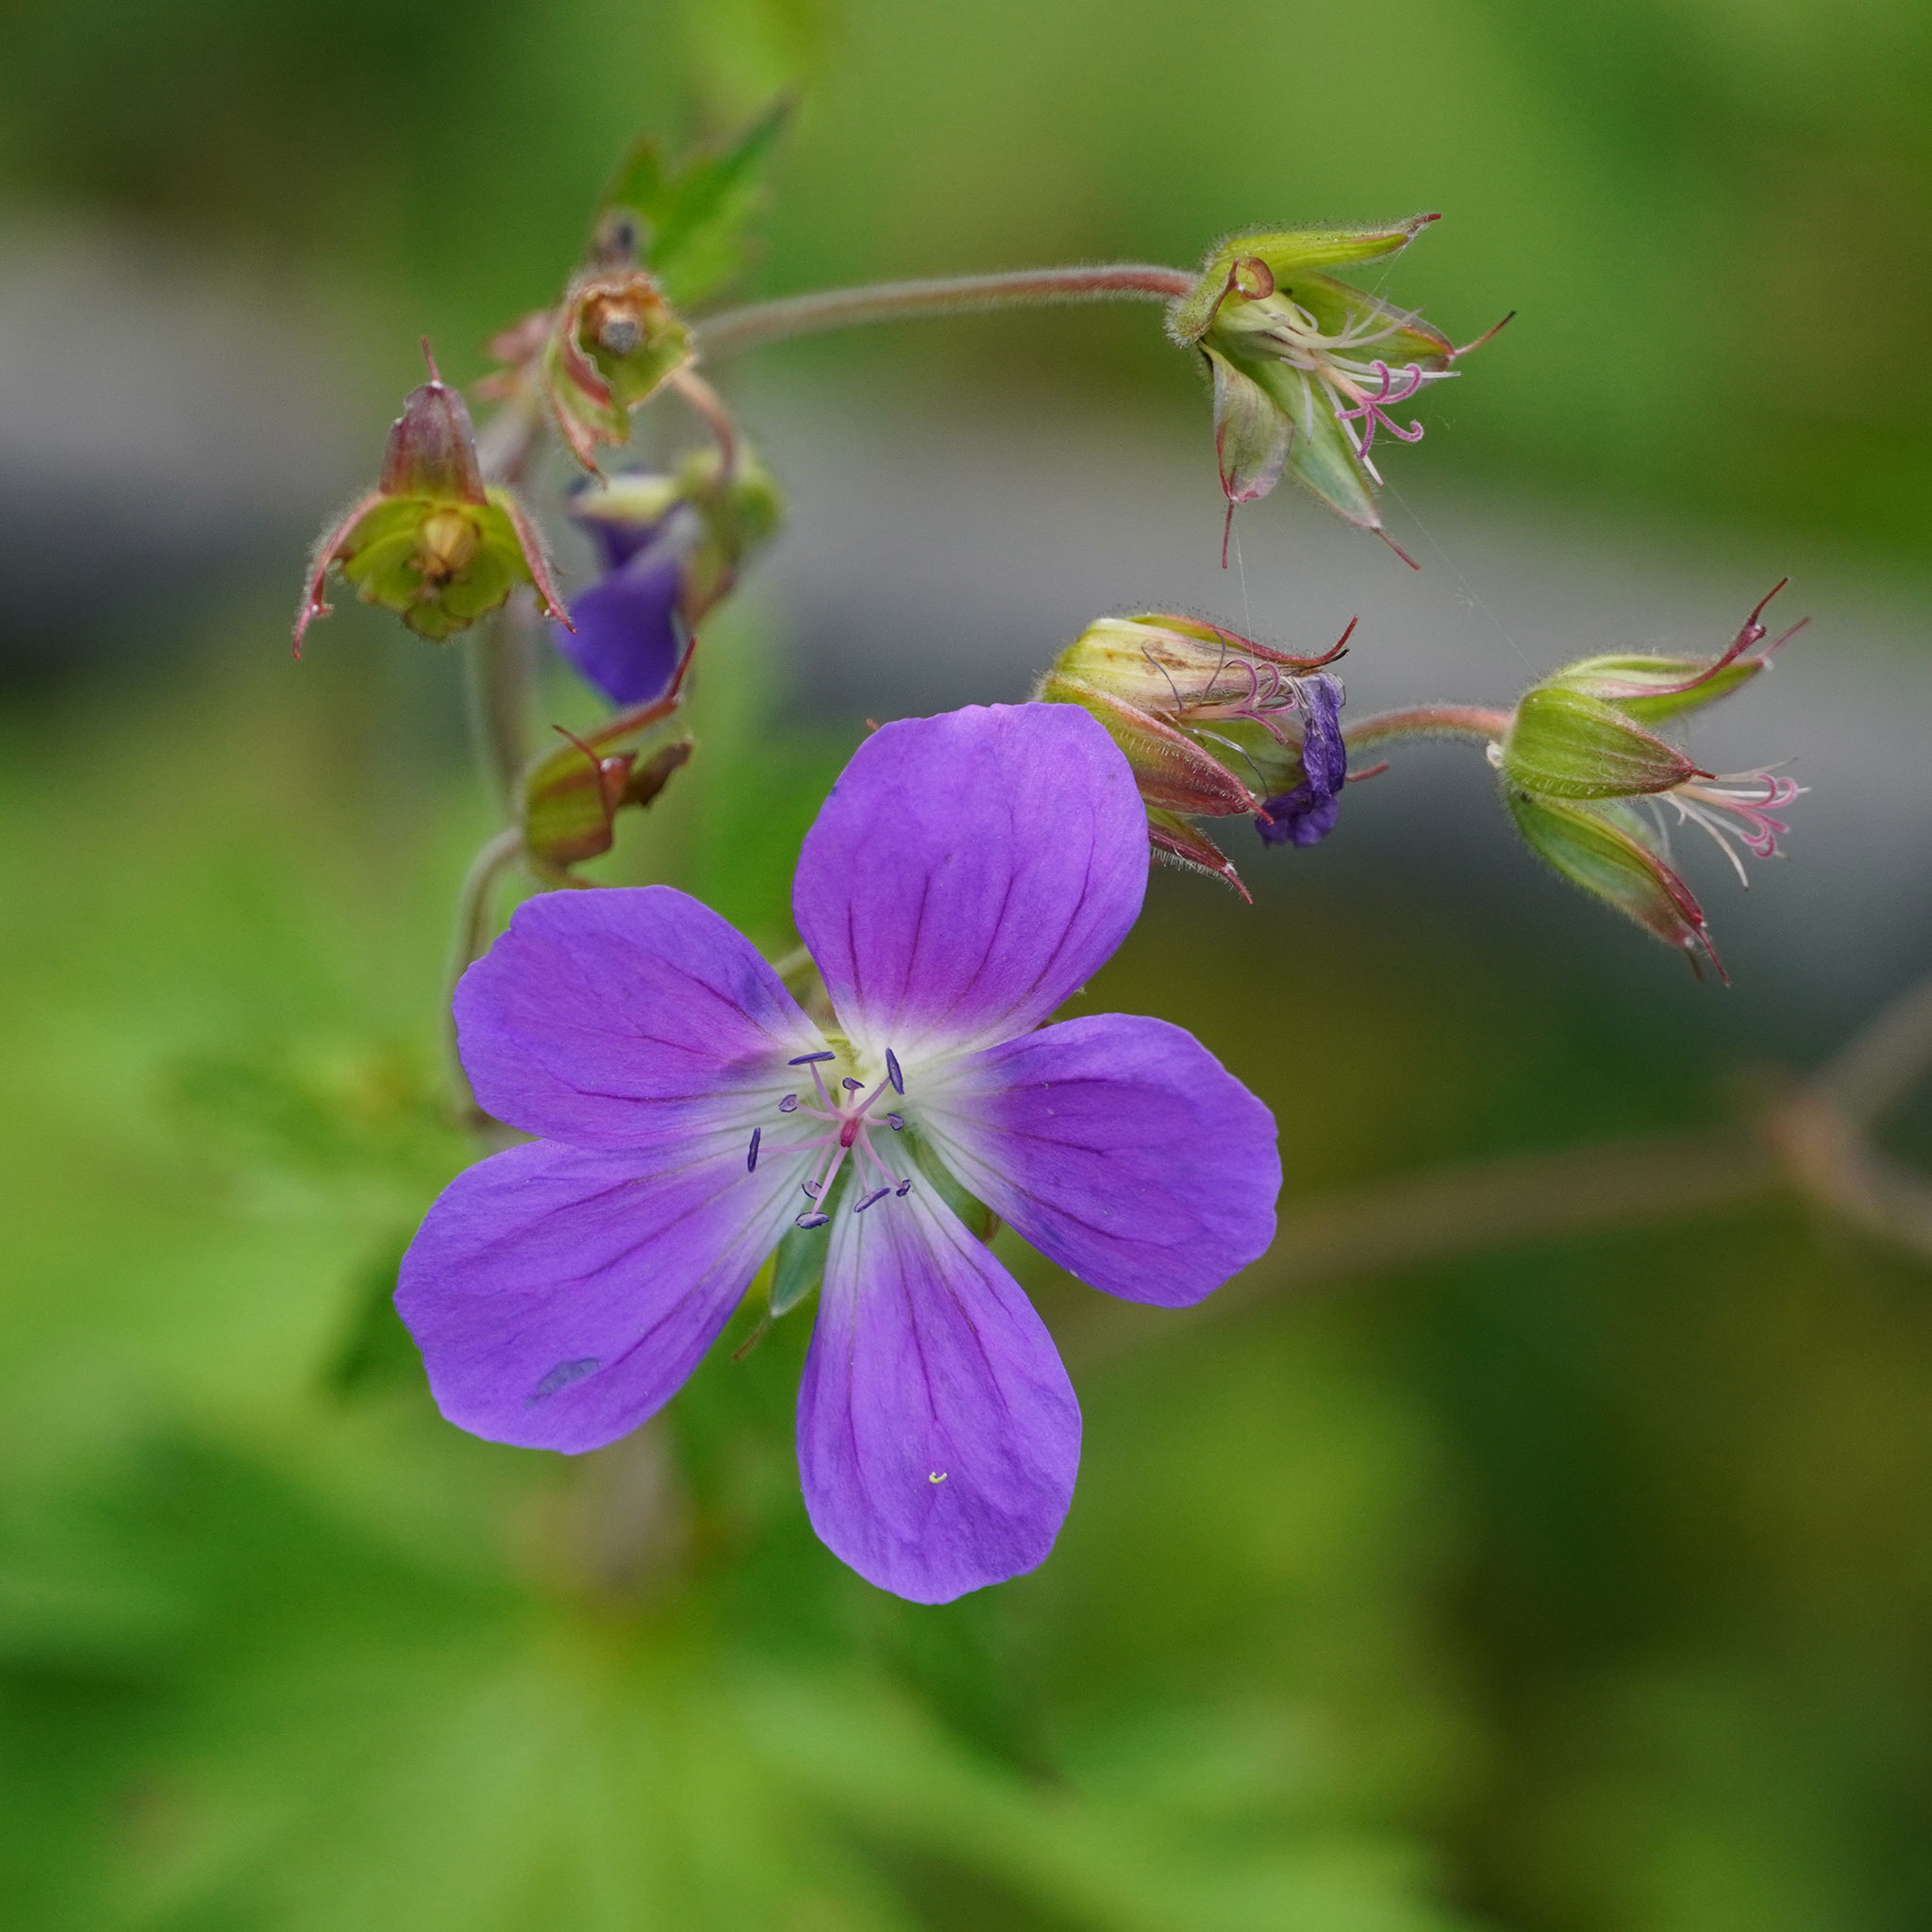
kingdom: Plantae
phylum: Tracheophyta
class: Magnoliopsida
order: Geraniales
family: Geraniaceae
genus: Geranium
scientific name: Geranium sylvaticum
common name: Wood crane's-bill
